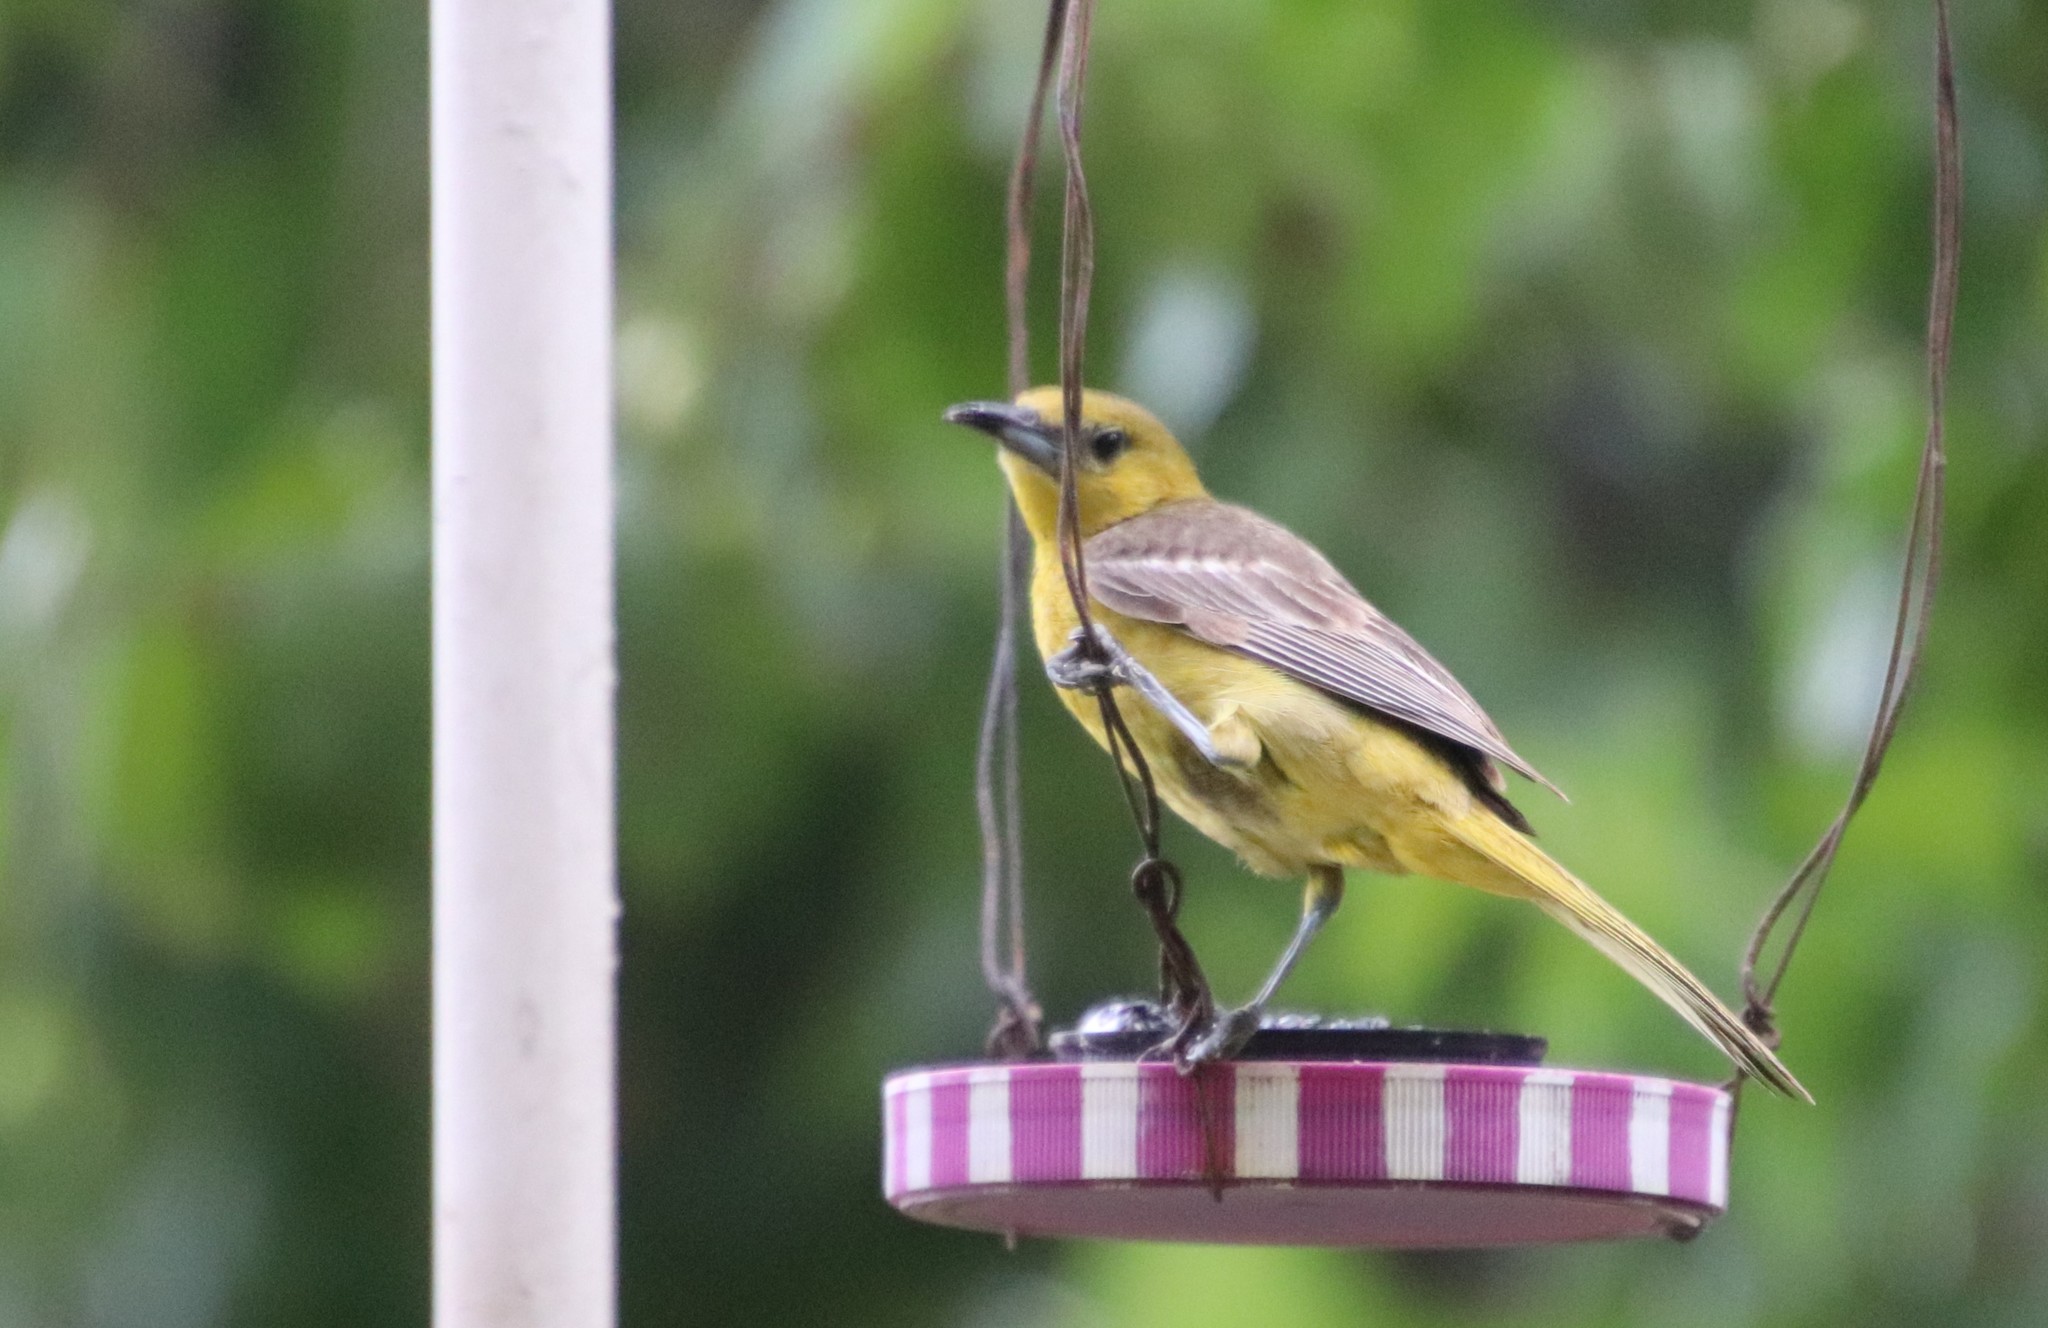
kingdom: Animalia
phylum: Chordata
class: Aves
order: Passeriformes
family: Icteridae
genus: Icterus
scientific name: Icterus cucullatus
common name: Hooded oriole
